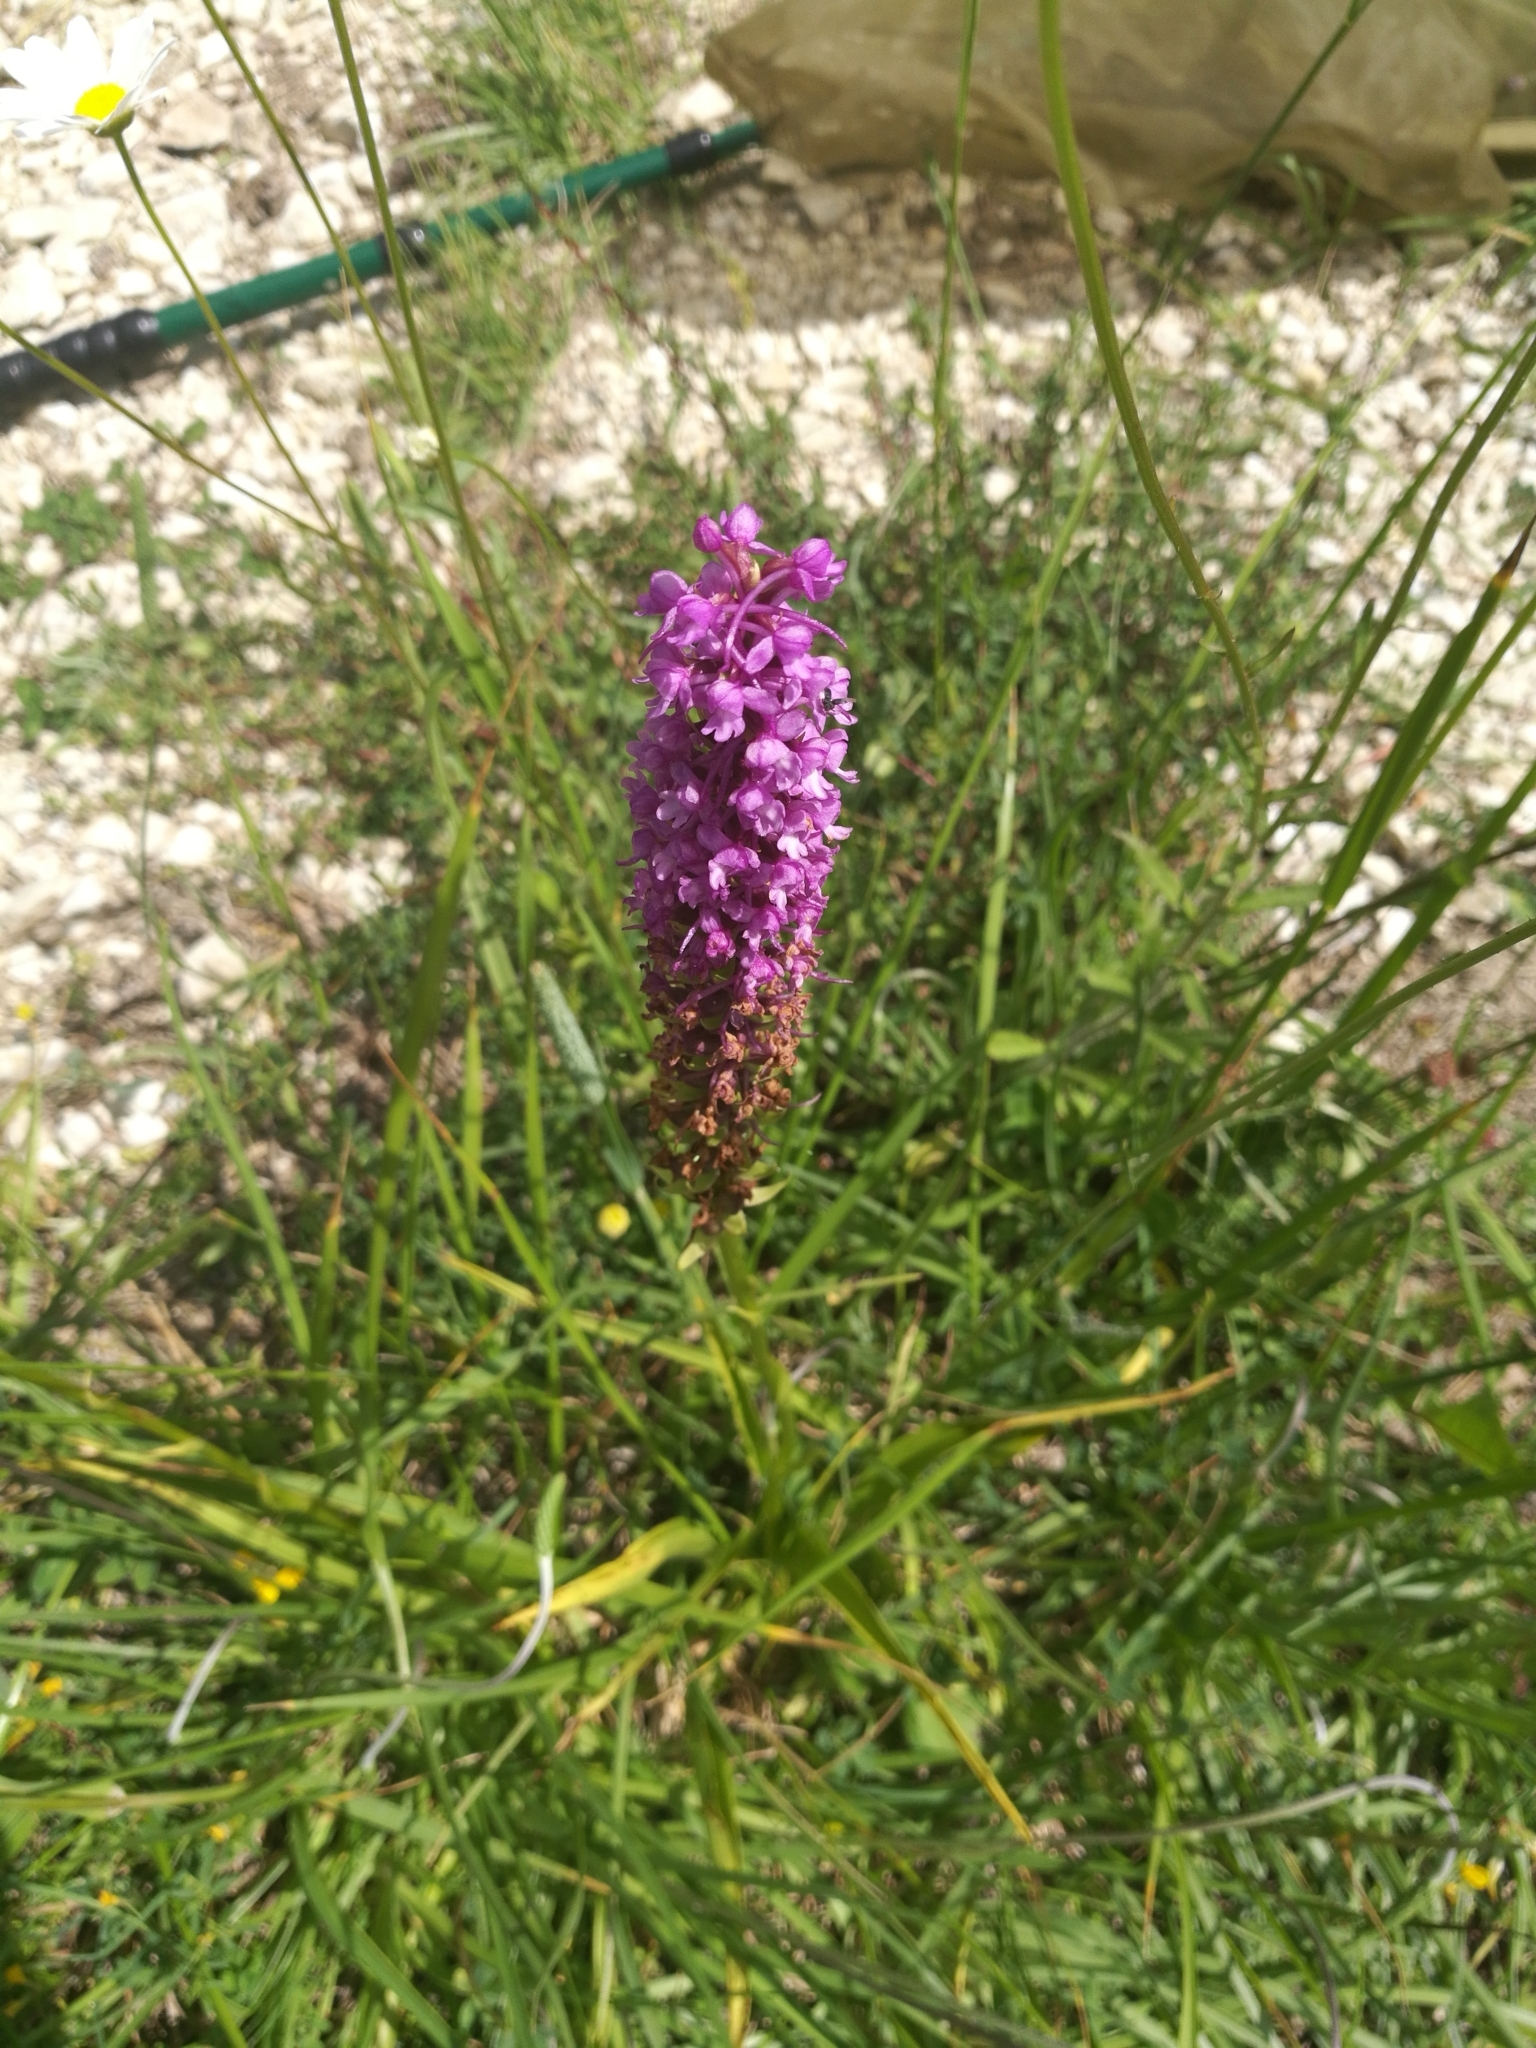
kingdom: Plantae
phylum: Tracheophyta
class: Liliopsida
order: Asparagales
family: Orchidaceae
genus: Gymnadenia
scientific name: Gymnadenia densiflora
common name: Marsh fragrant-orchid
